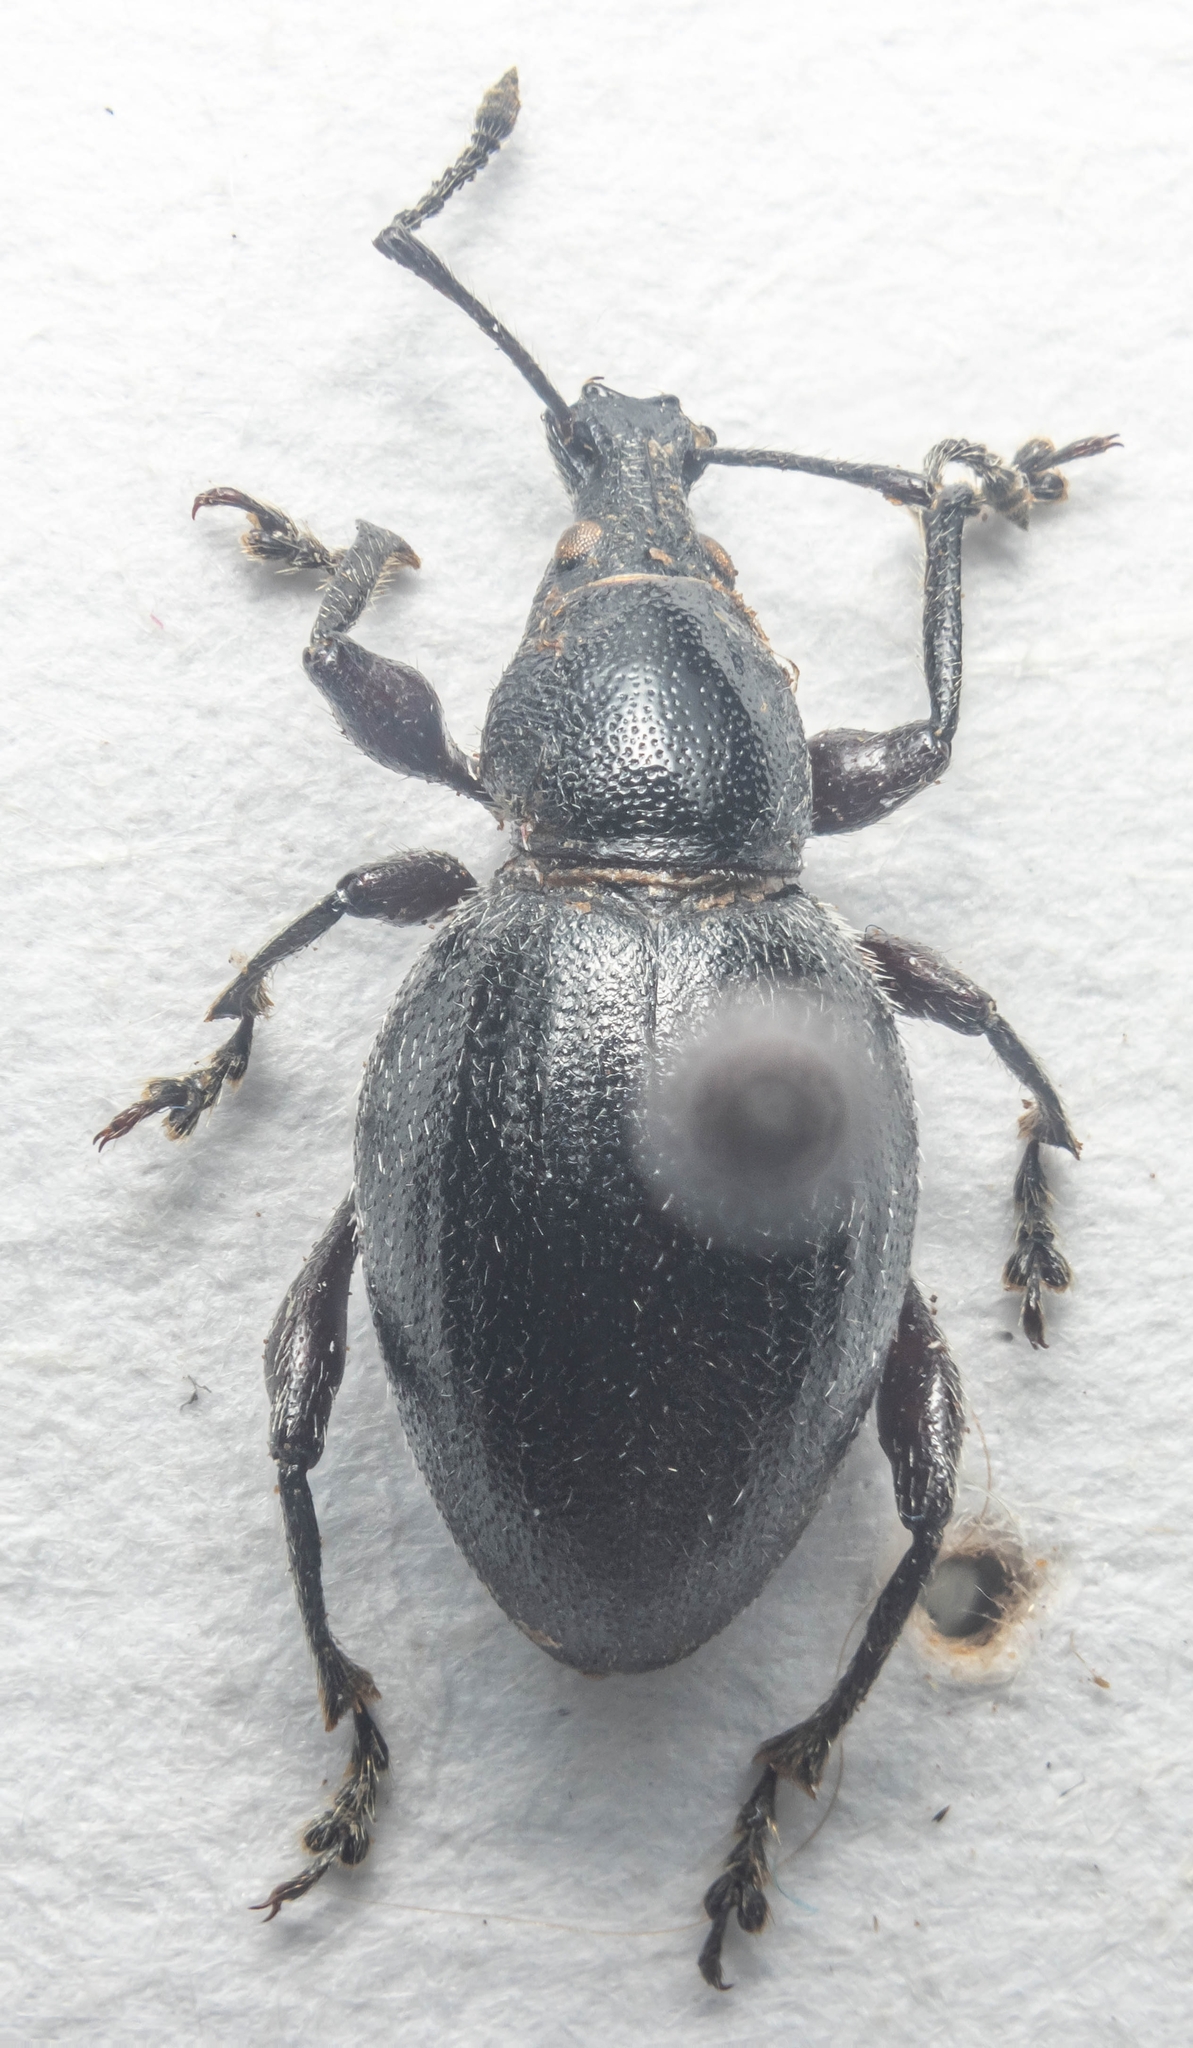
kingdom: Animalia
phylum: Arthropoda
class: Insecta
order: Coleoptera
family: Curculionidae
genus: Otiorhynchus
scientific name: Otiorhynchus atroapterus
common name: Black marram weevil
